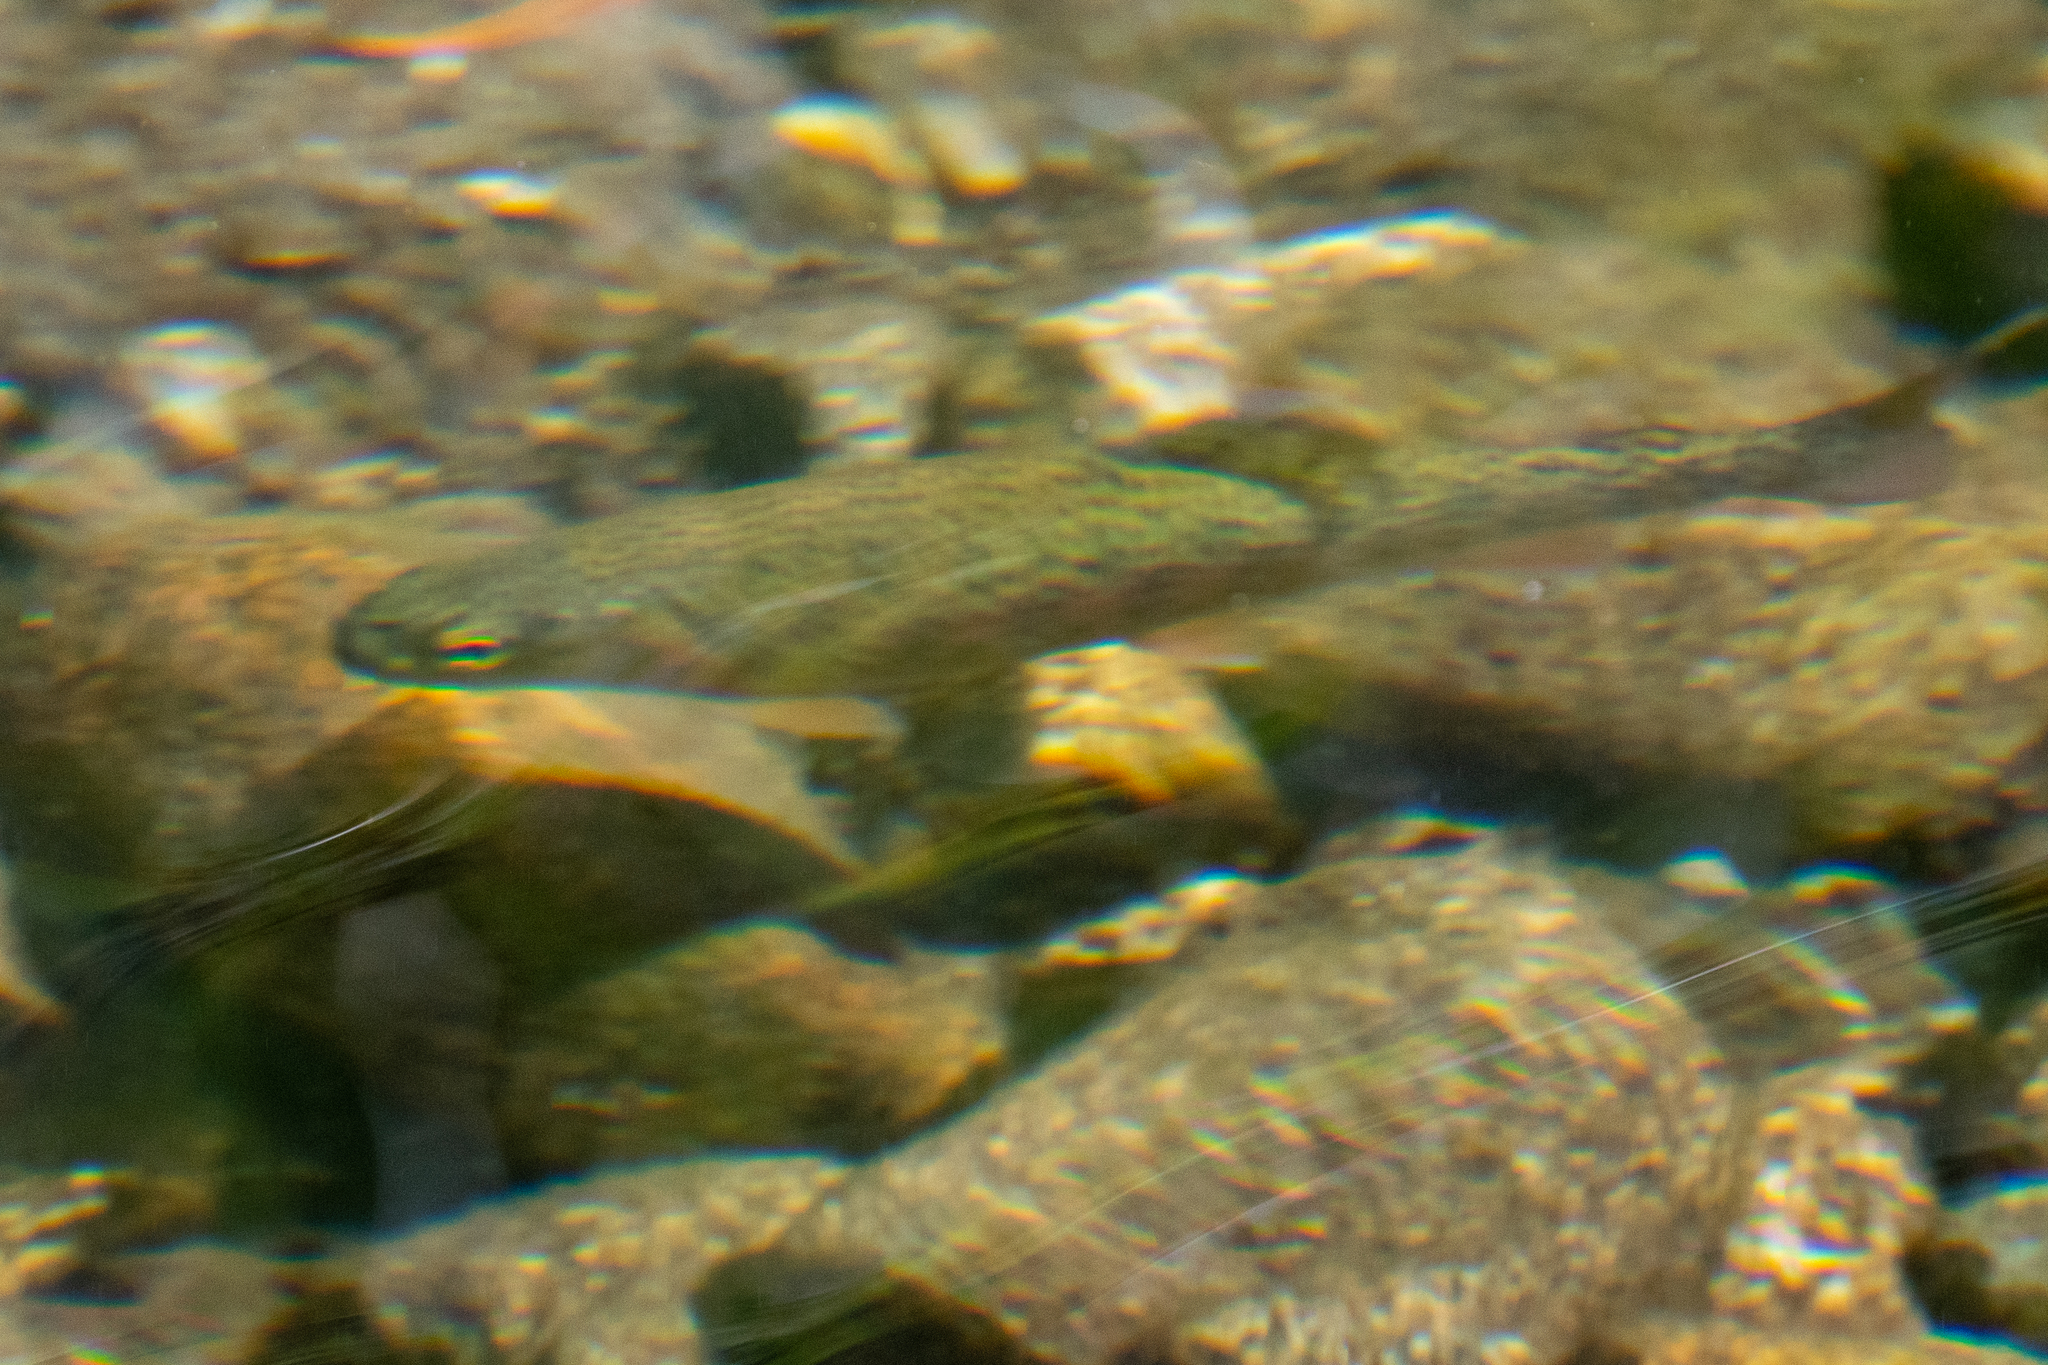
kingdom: Animalia
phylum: Chordata
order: Salmoniformes
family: Salmonidae
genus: Oncorhynchus
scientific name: Oncorhynchus mykiss
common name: Rainbow trout
